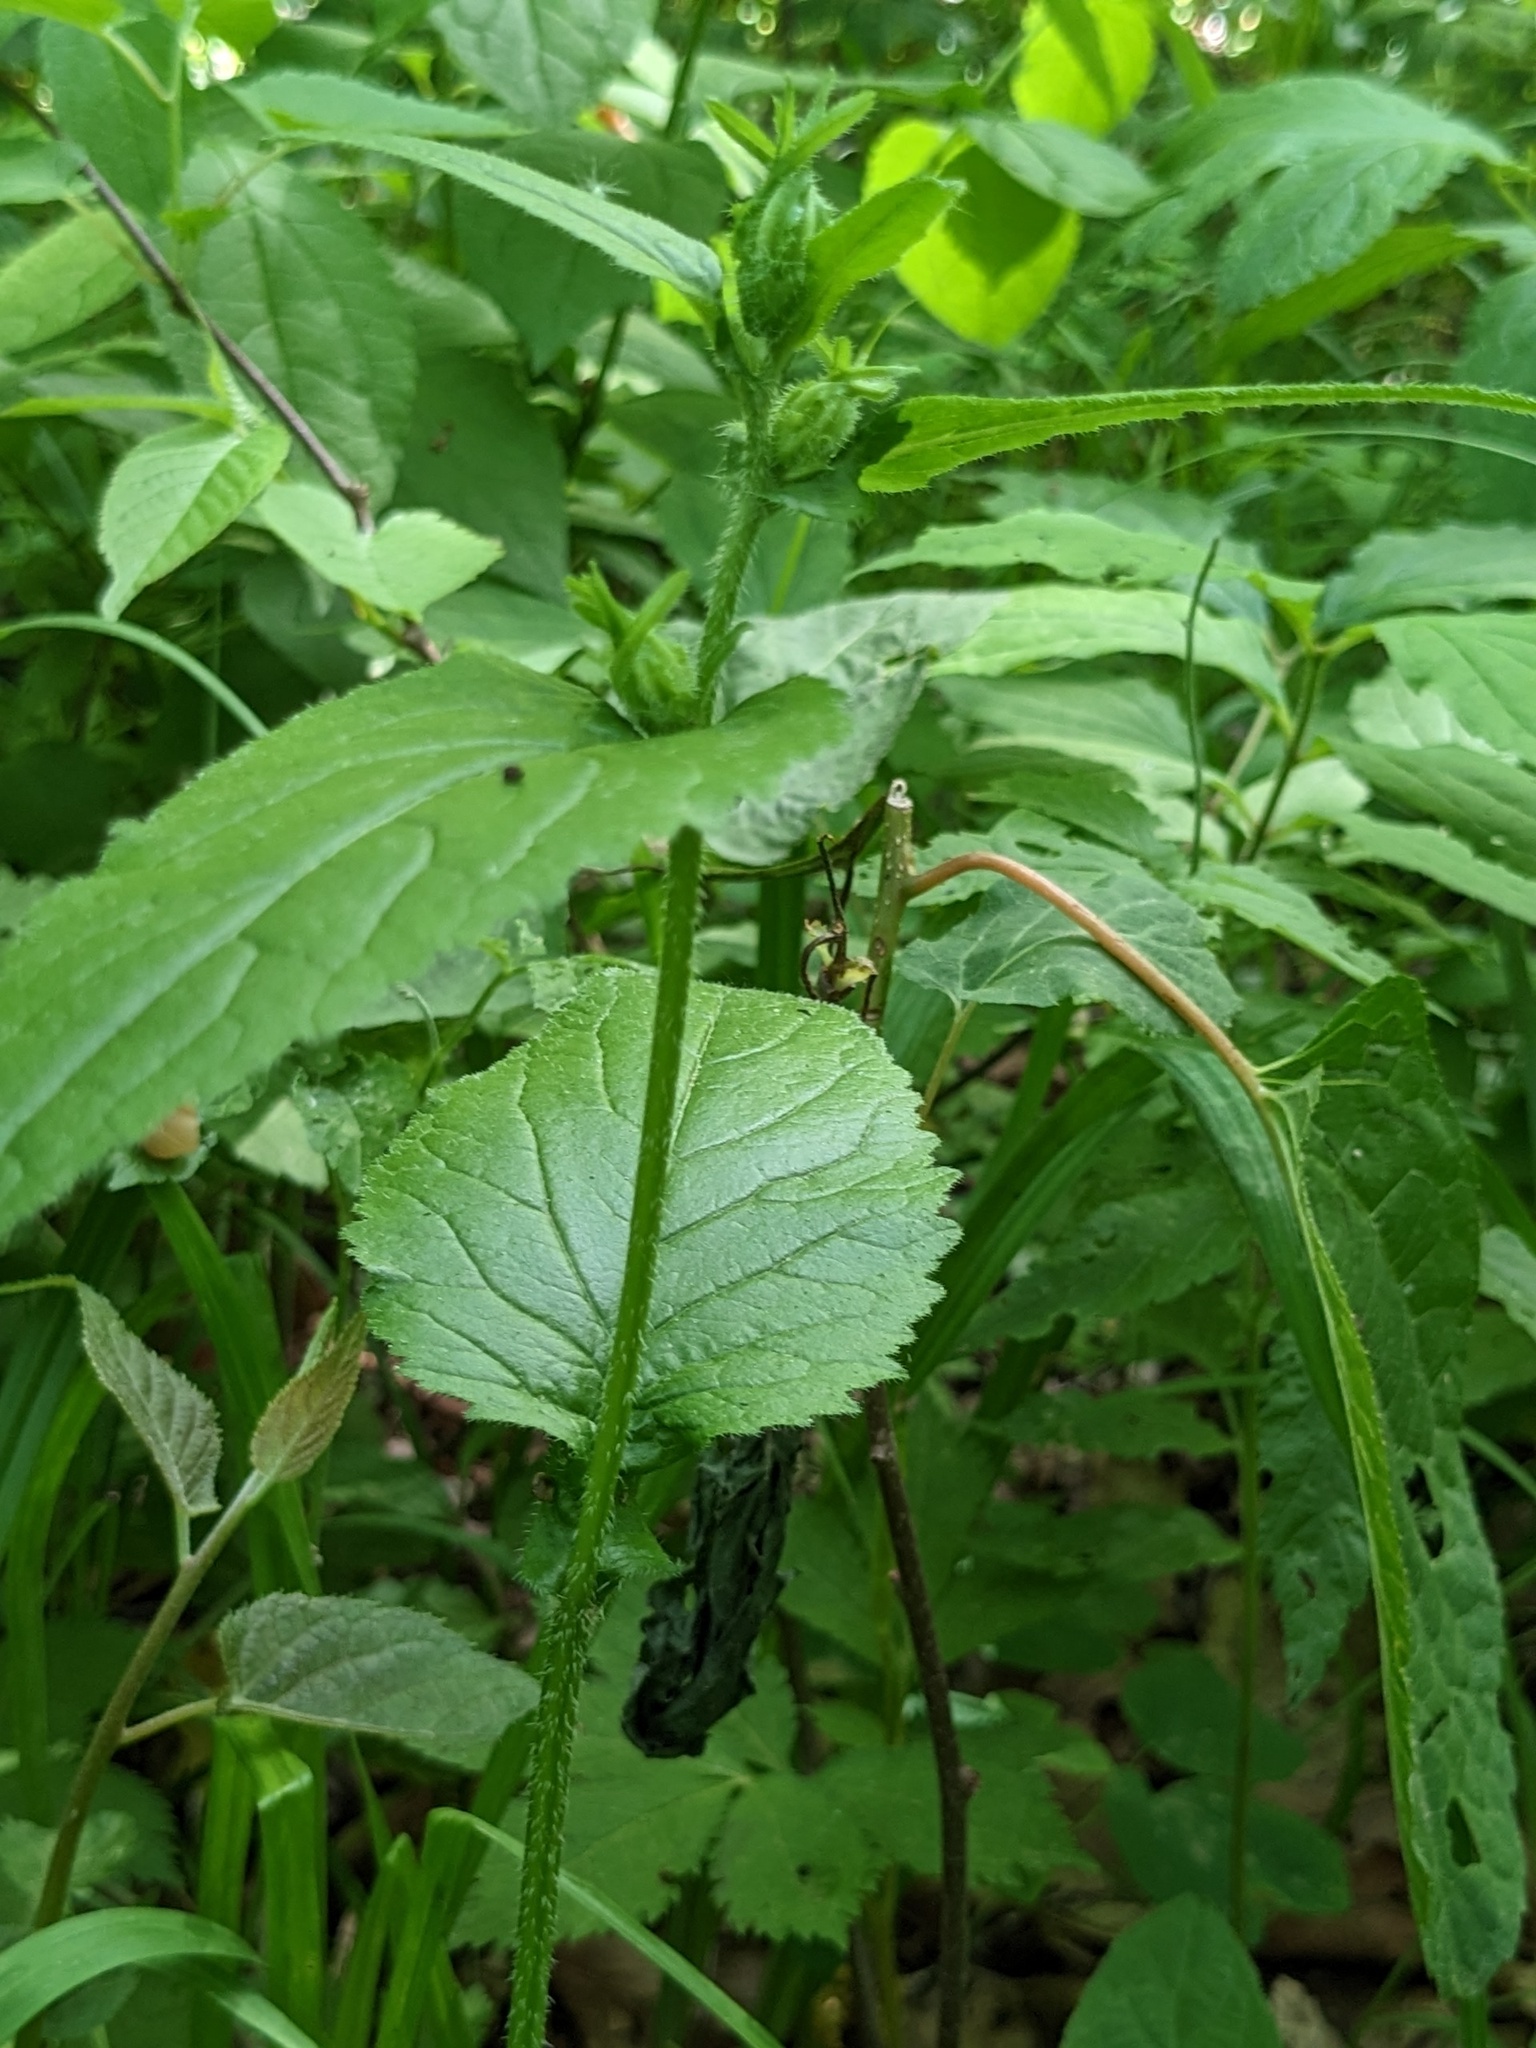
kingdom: Plantae
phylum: Tracheophyta
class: Magnoliopsida
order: Asterales
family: Campanulaceae
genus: Campanula
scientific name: Campanula punctata
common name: Spotted bellflower
